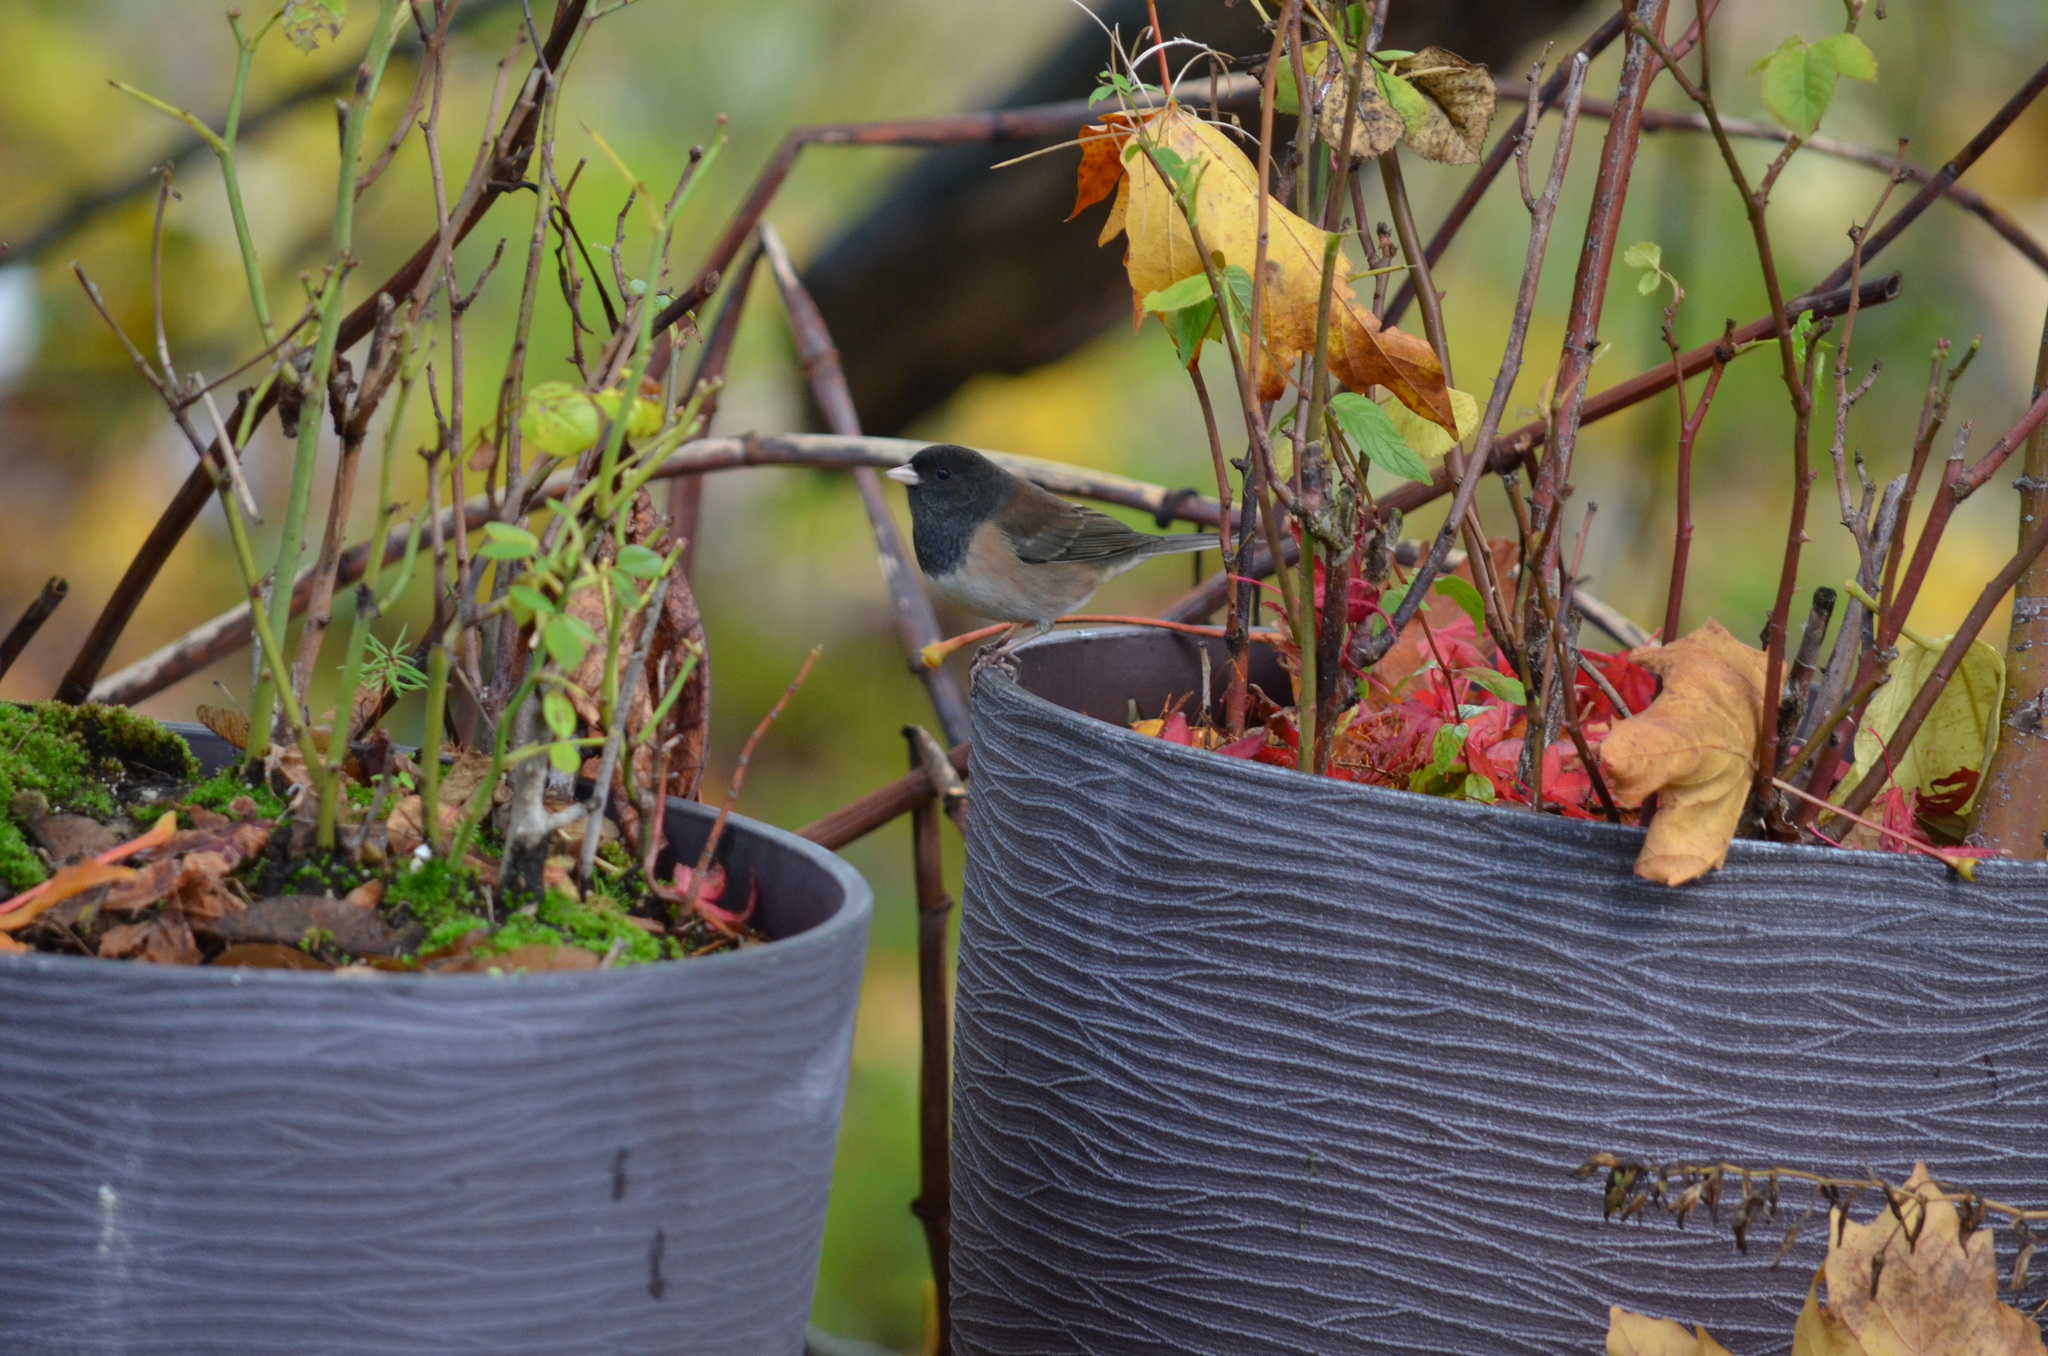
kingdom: Animalia
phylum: Chordata
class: Aves
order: Passeriformes
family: Passerellidae
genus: Junco
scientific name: Junco hyemalis
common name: Dark-eyed junco
